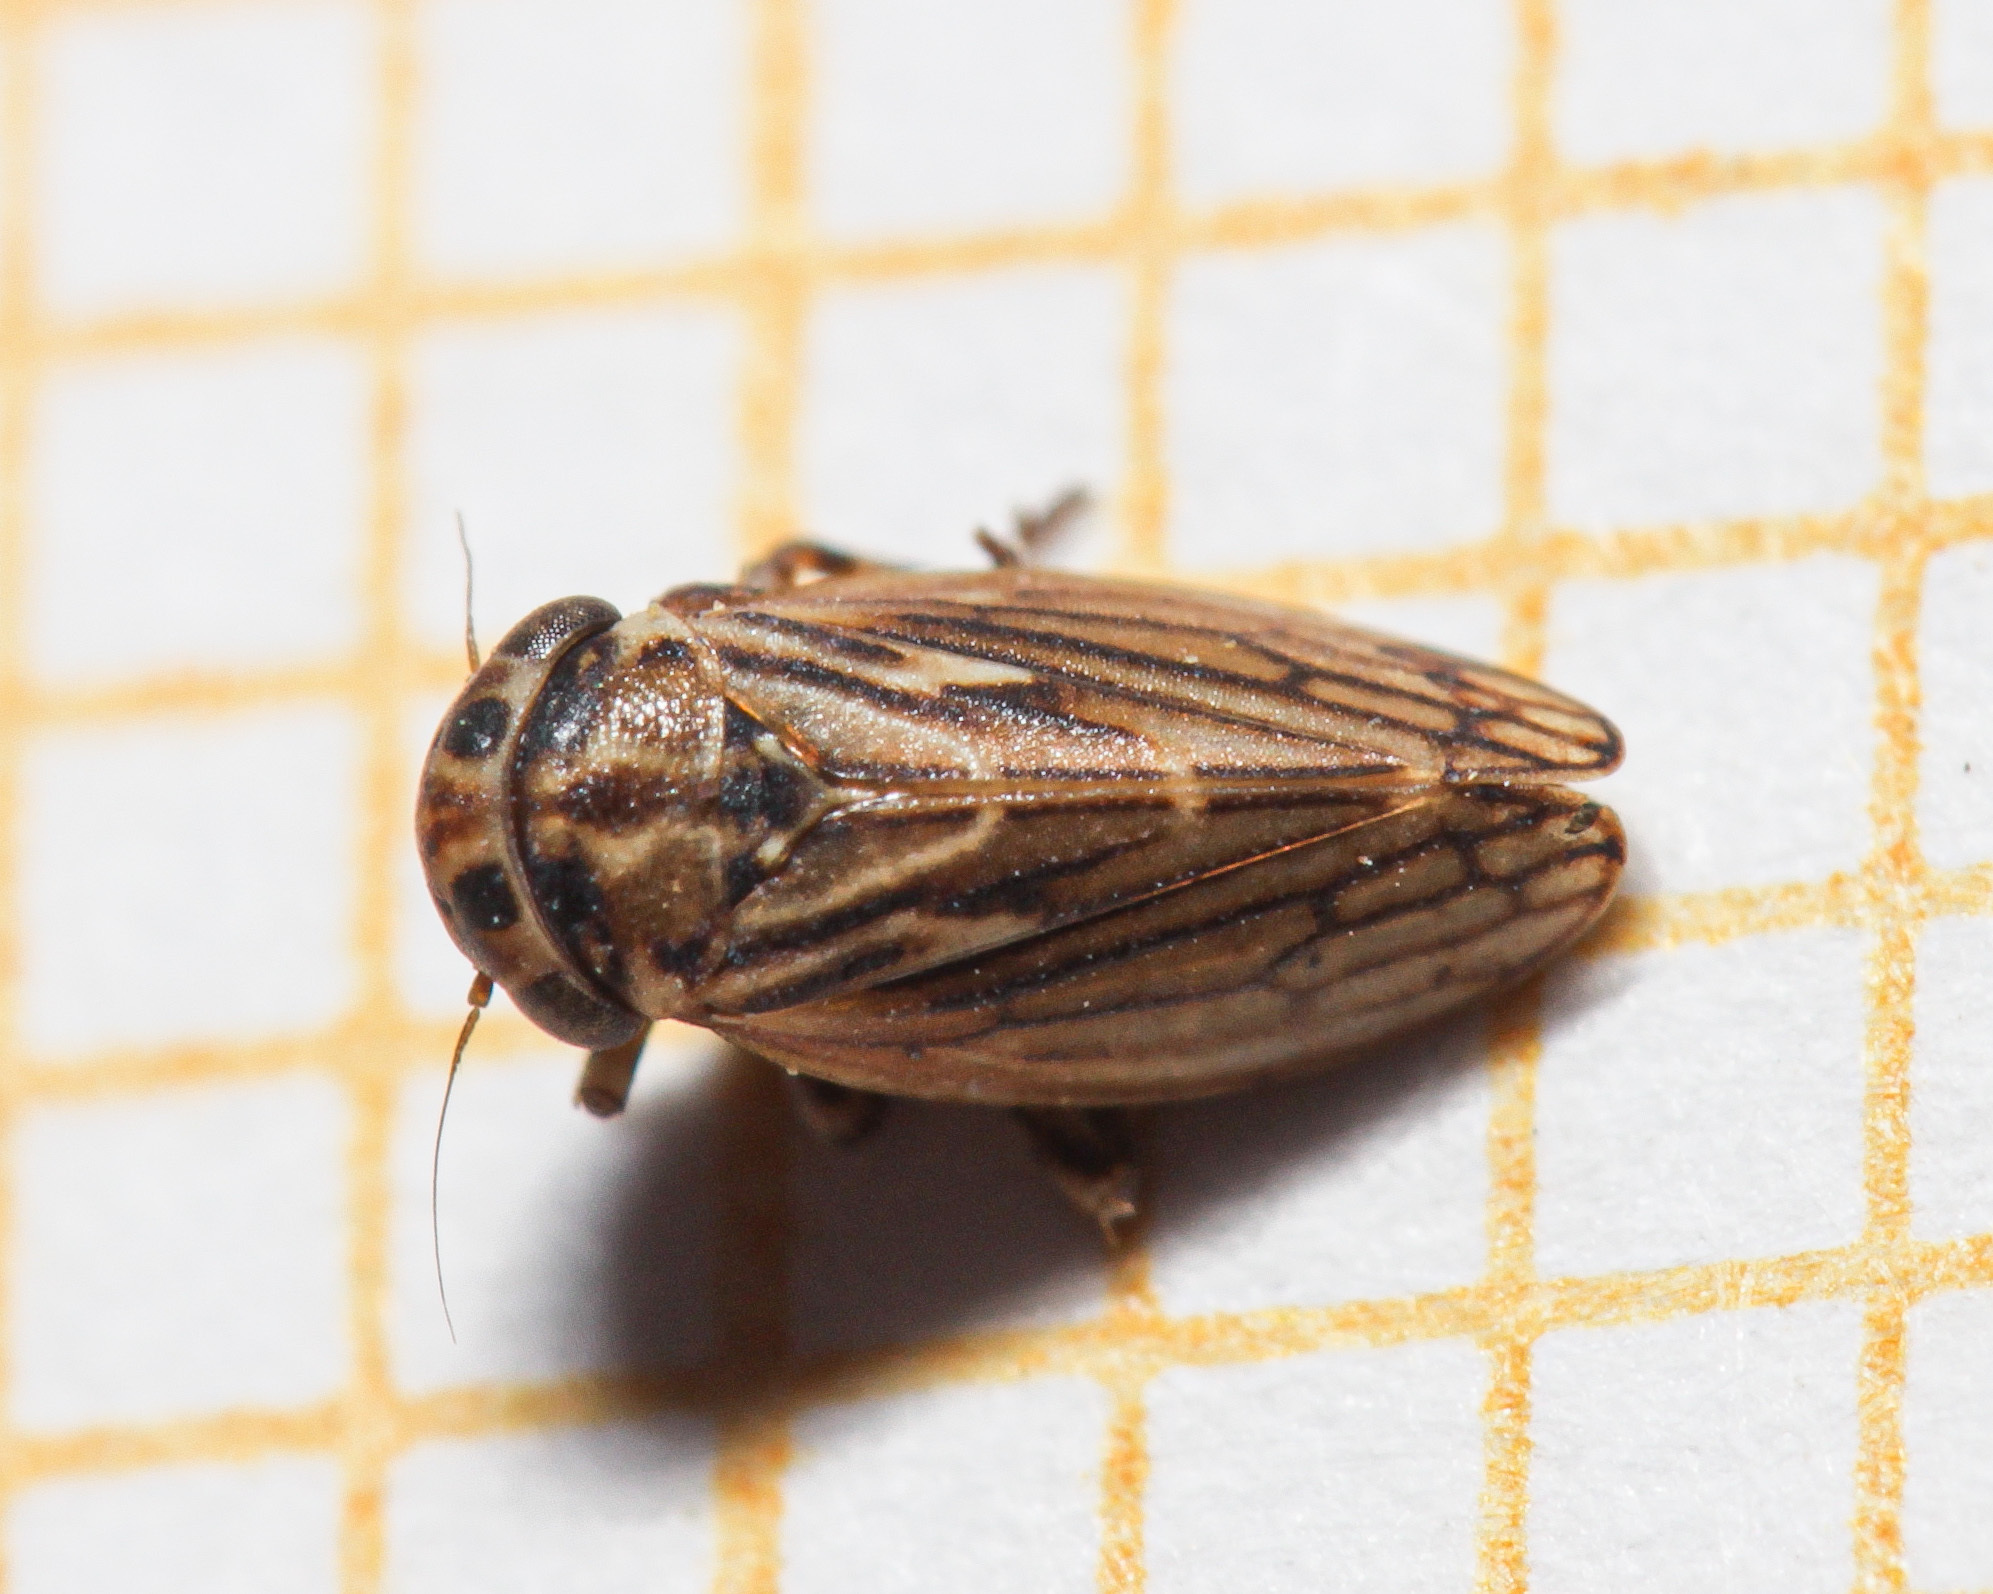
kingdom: Animalia
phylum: Arthropoda
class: Insecta
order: Hemiptera
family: Cicadellidae
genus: Anaceratagallia
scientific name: Anaceratagallia
